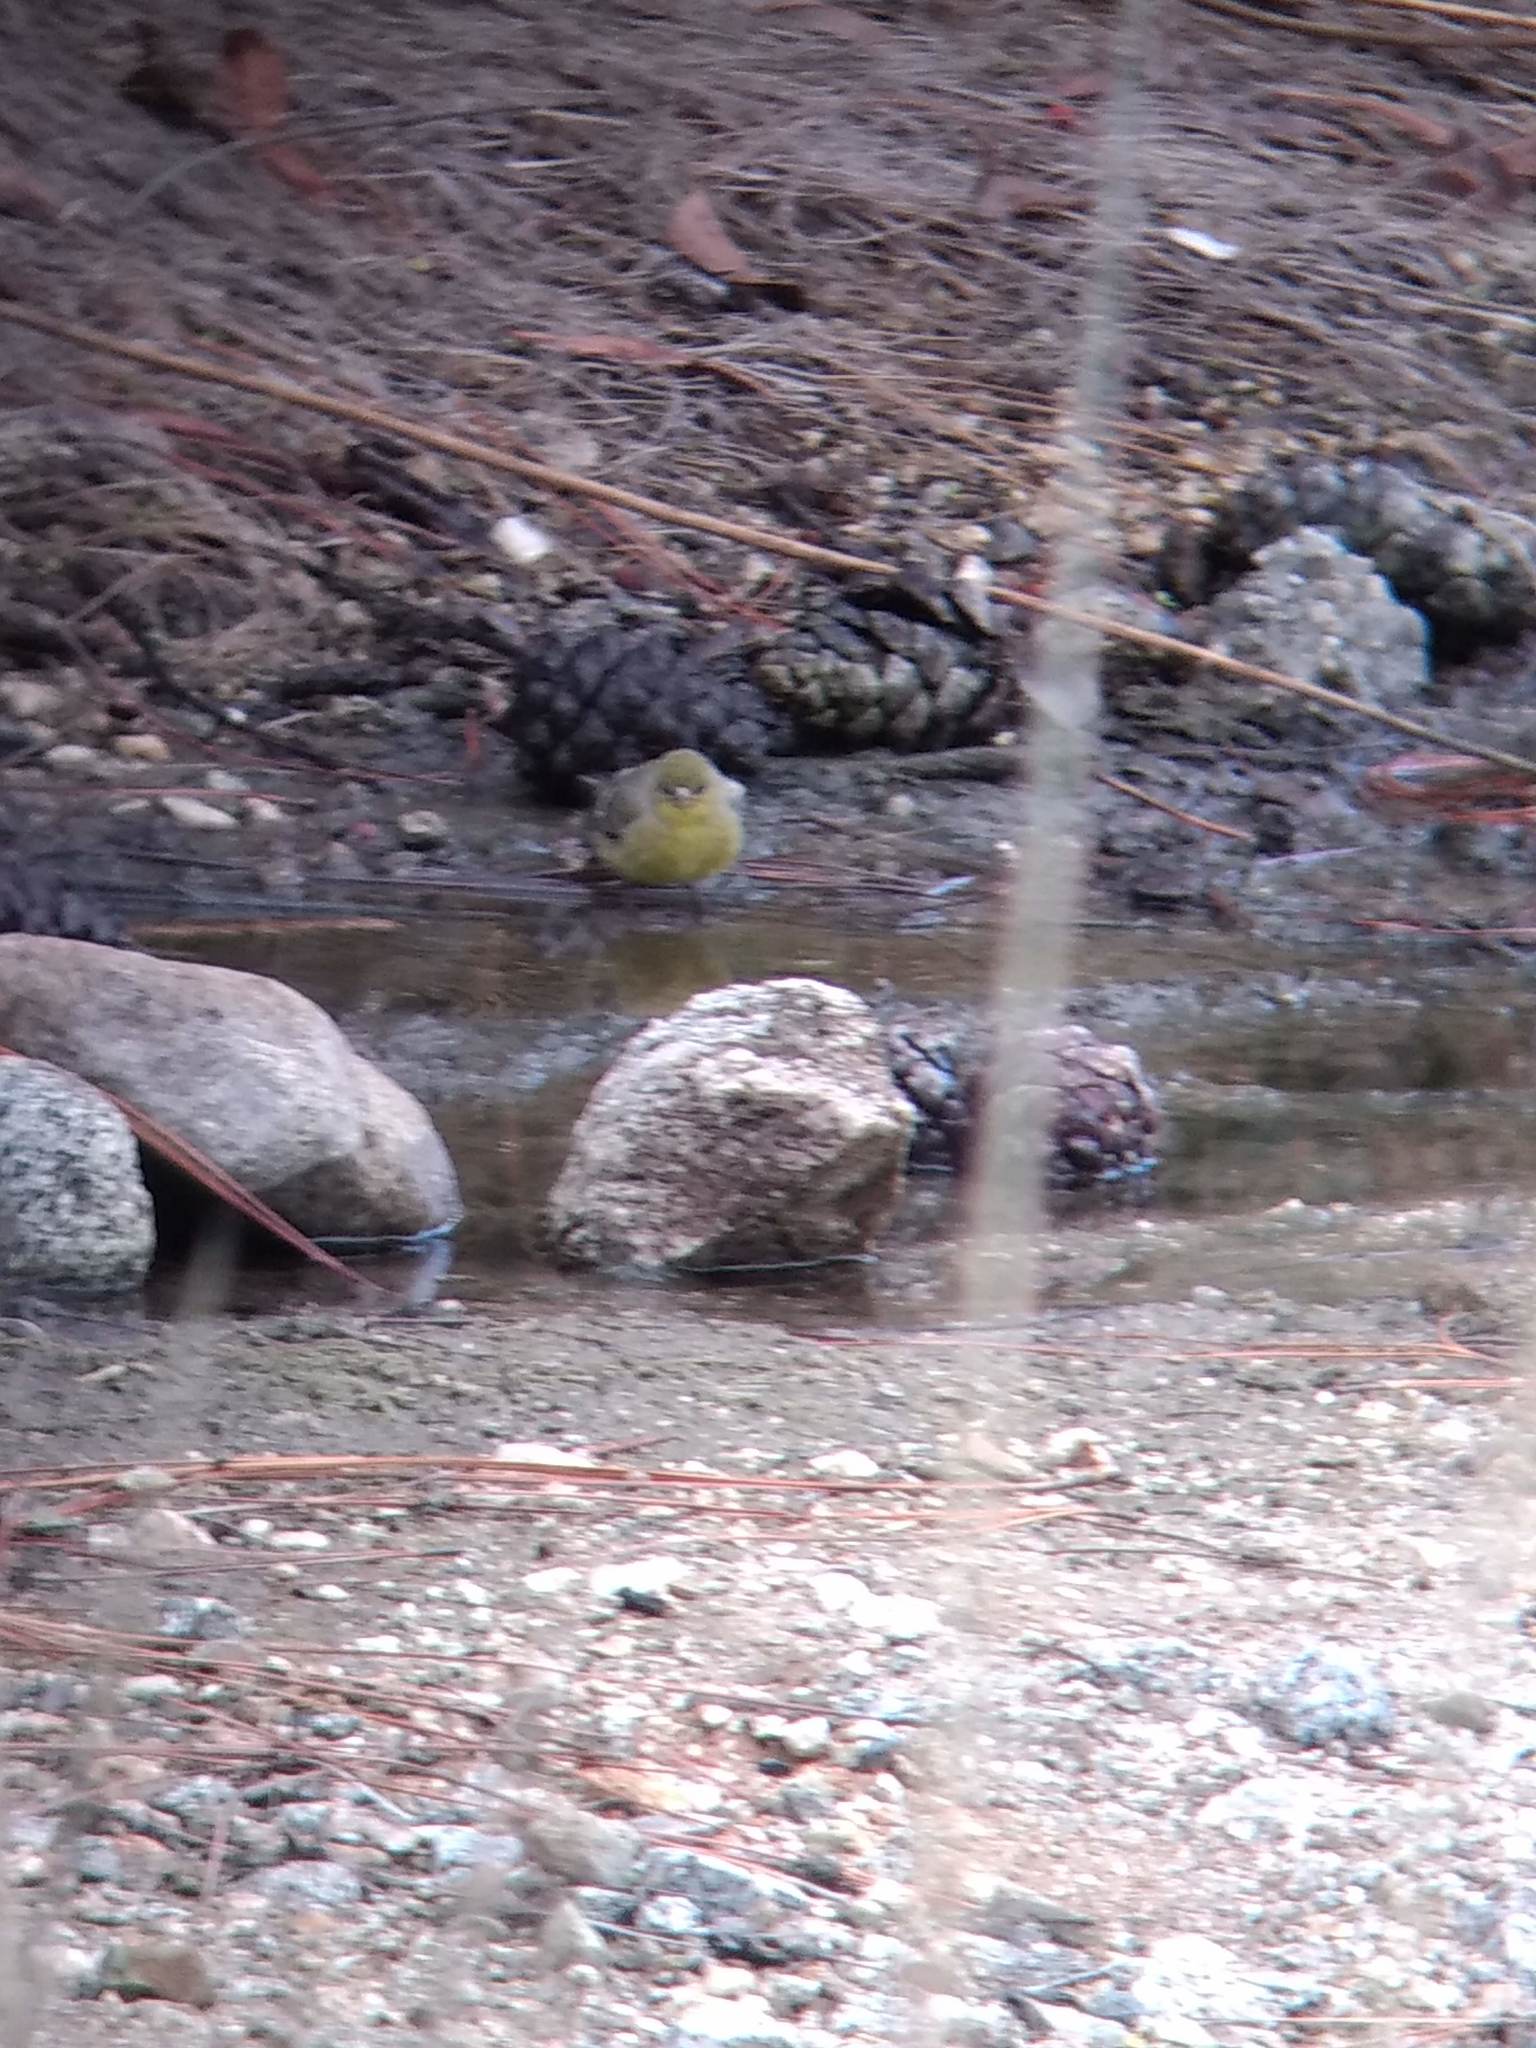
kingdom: Animalia
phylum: Chordata
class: Aves
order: Passeriformes
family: Fringillidae
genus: Spinus
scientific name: Spinus psaltria
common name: Lesser goldfinch
